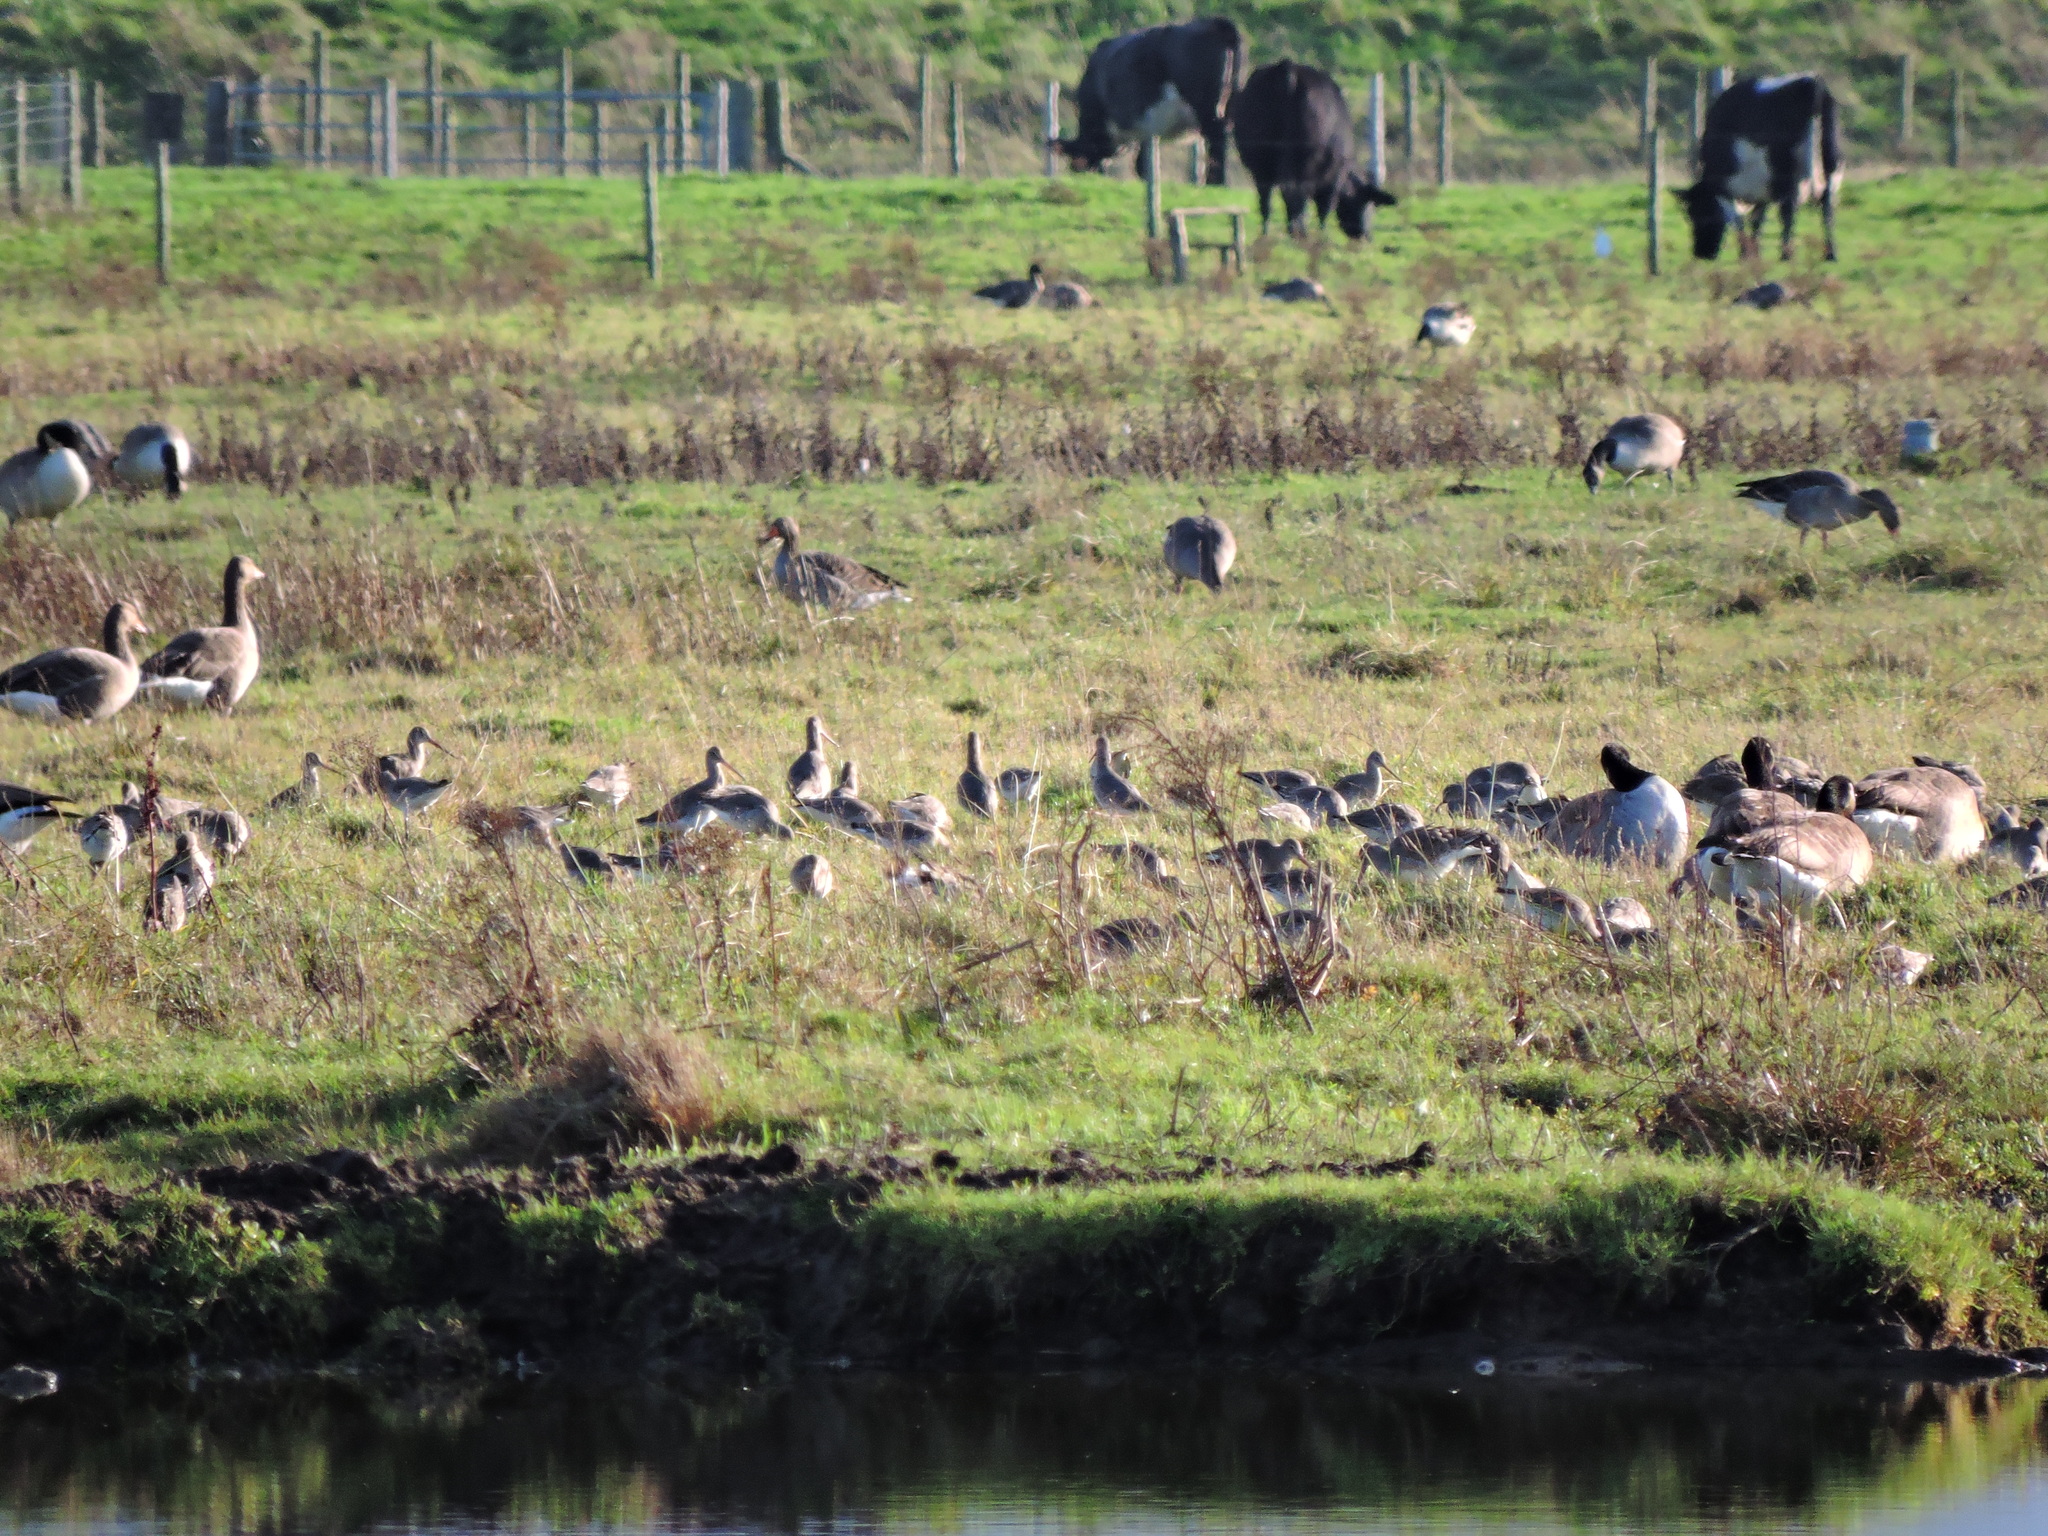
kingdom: Animalia
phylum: Chordata
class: Aves
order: Charadriiformes
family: Scolopacidae
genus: Limosa
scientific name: Limosa limosa
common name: Black-tailed godwit
